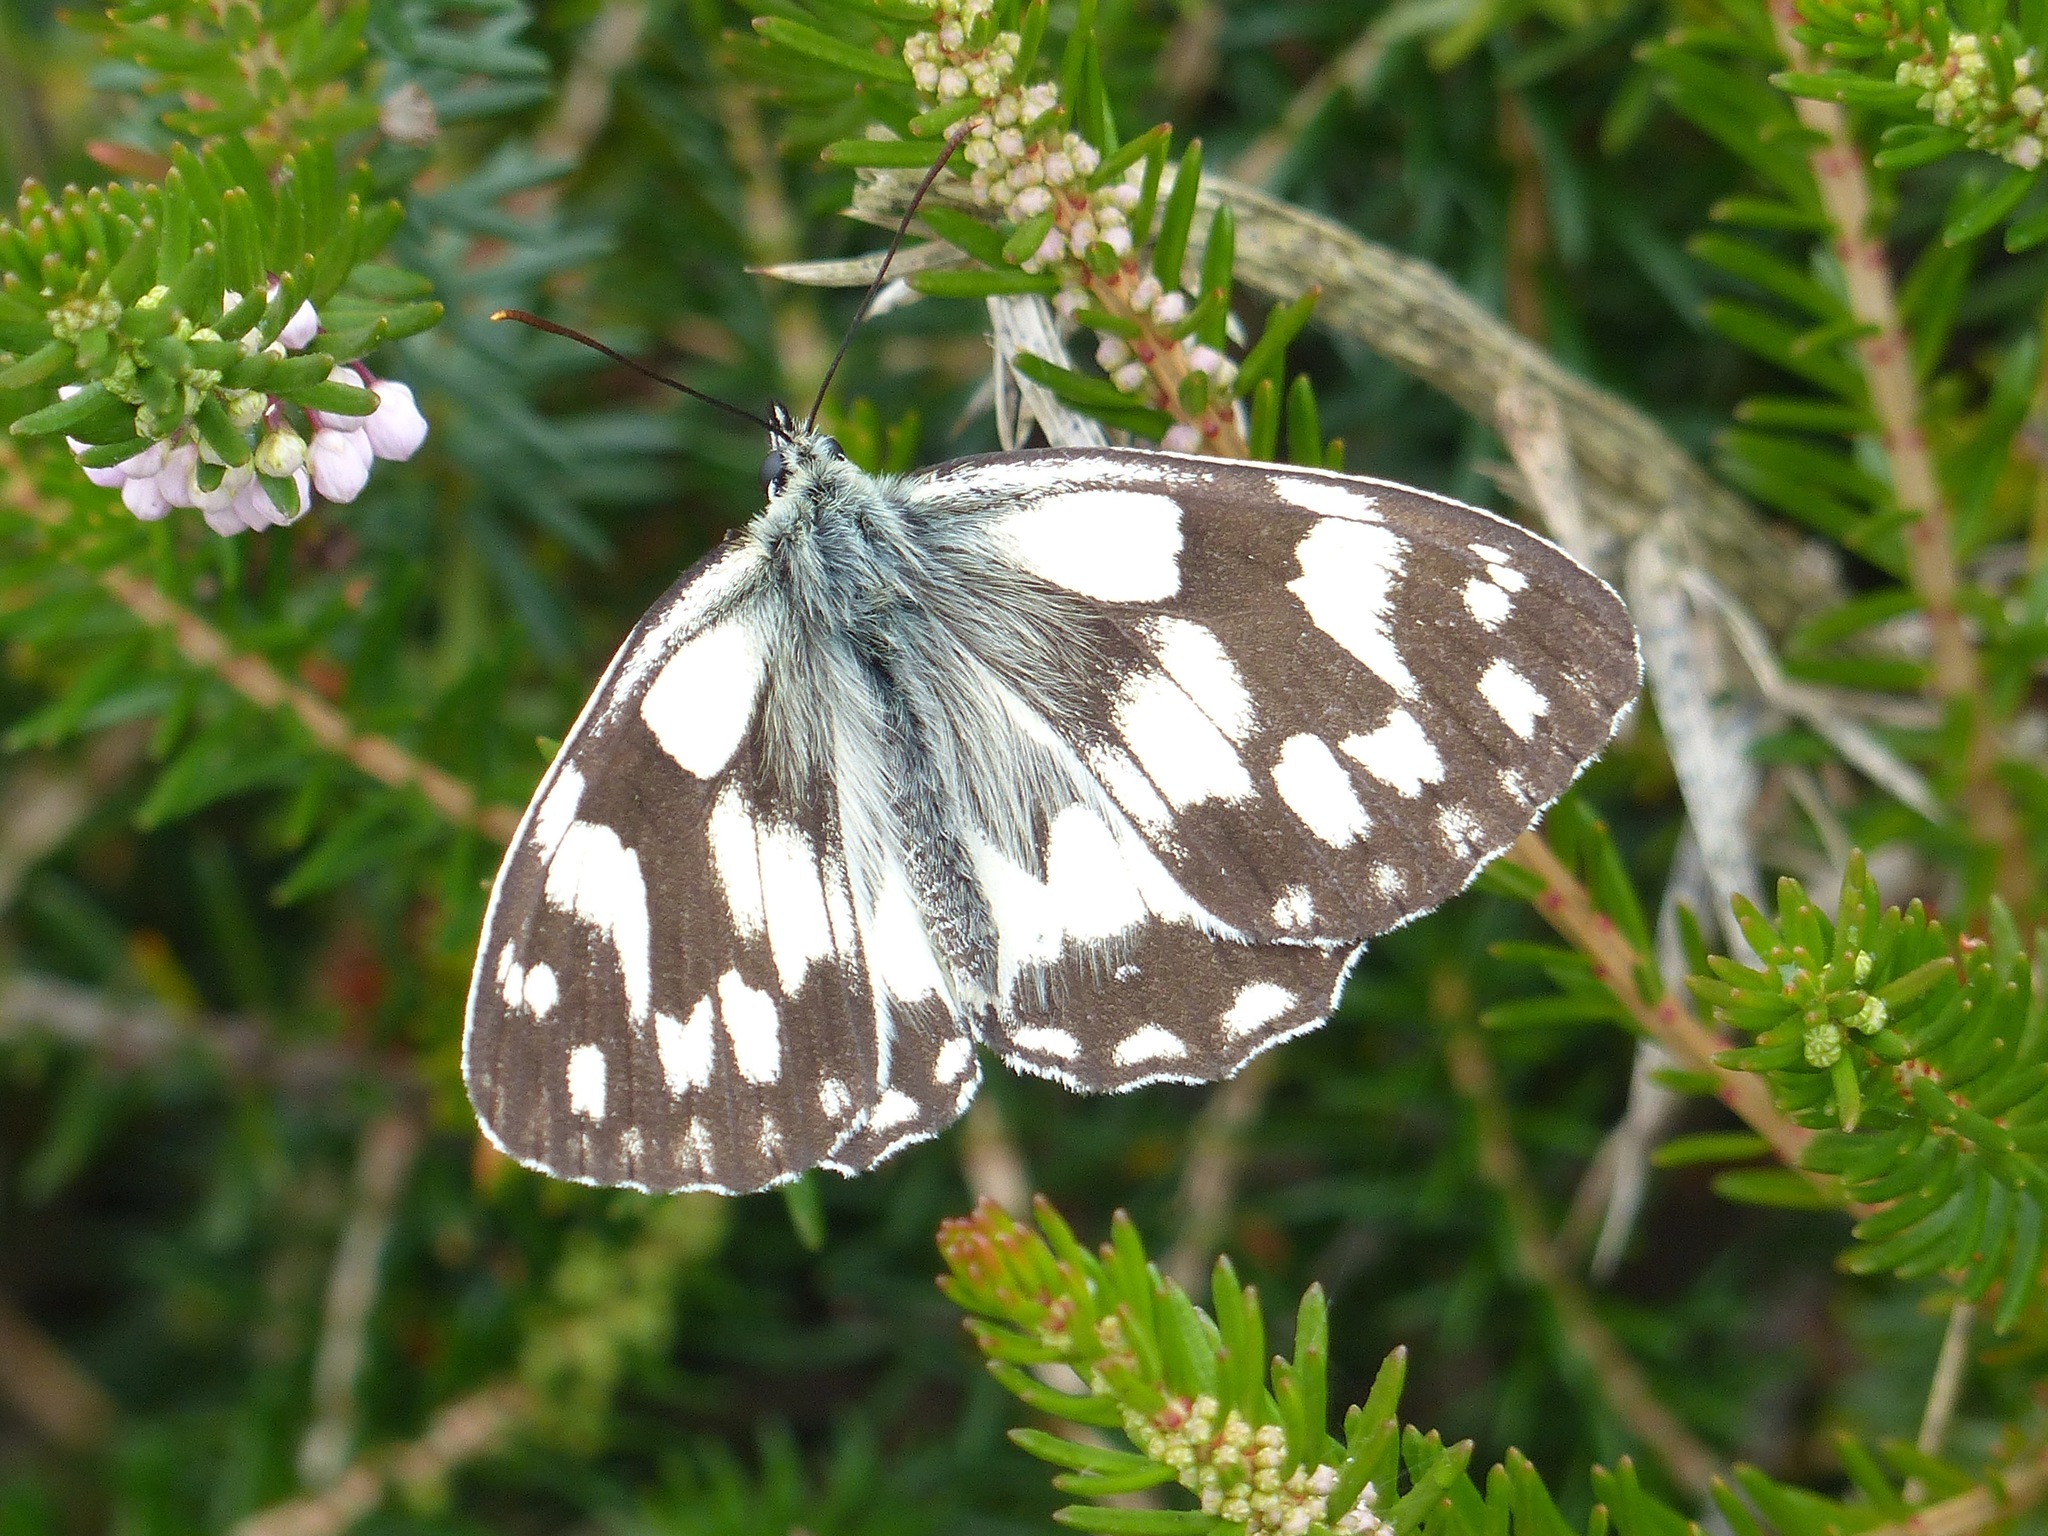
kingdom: Animalia
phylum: Arthropoda
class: Insecta
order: Lepidoptera
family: Nymphalidae
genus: Melanargia
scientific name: Melanargia galathea
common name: Marbled white
